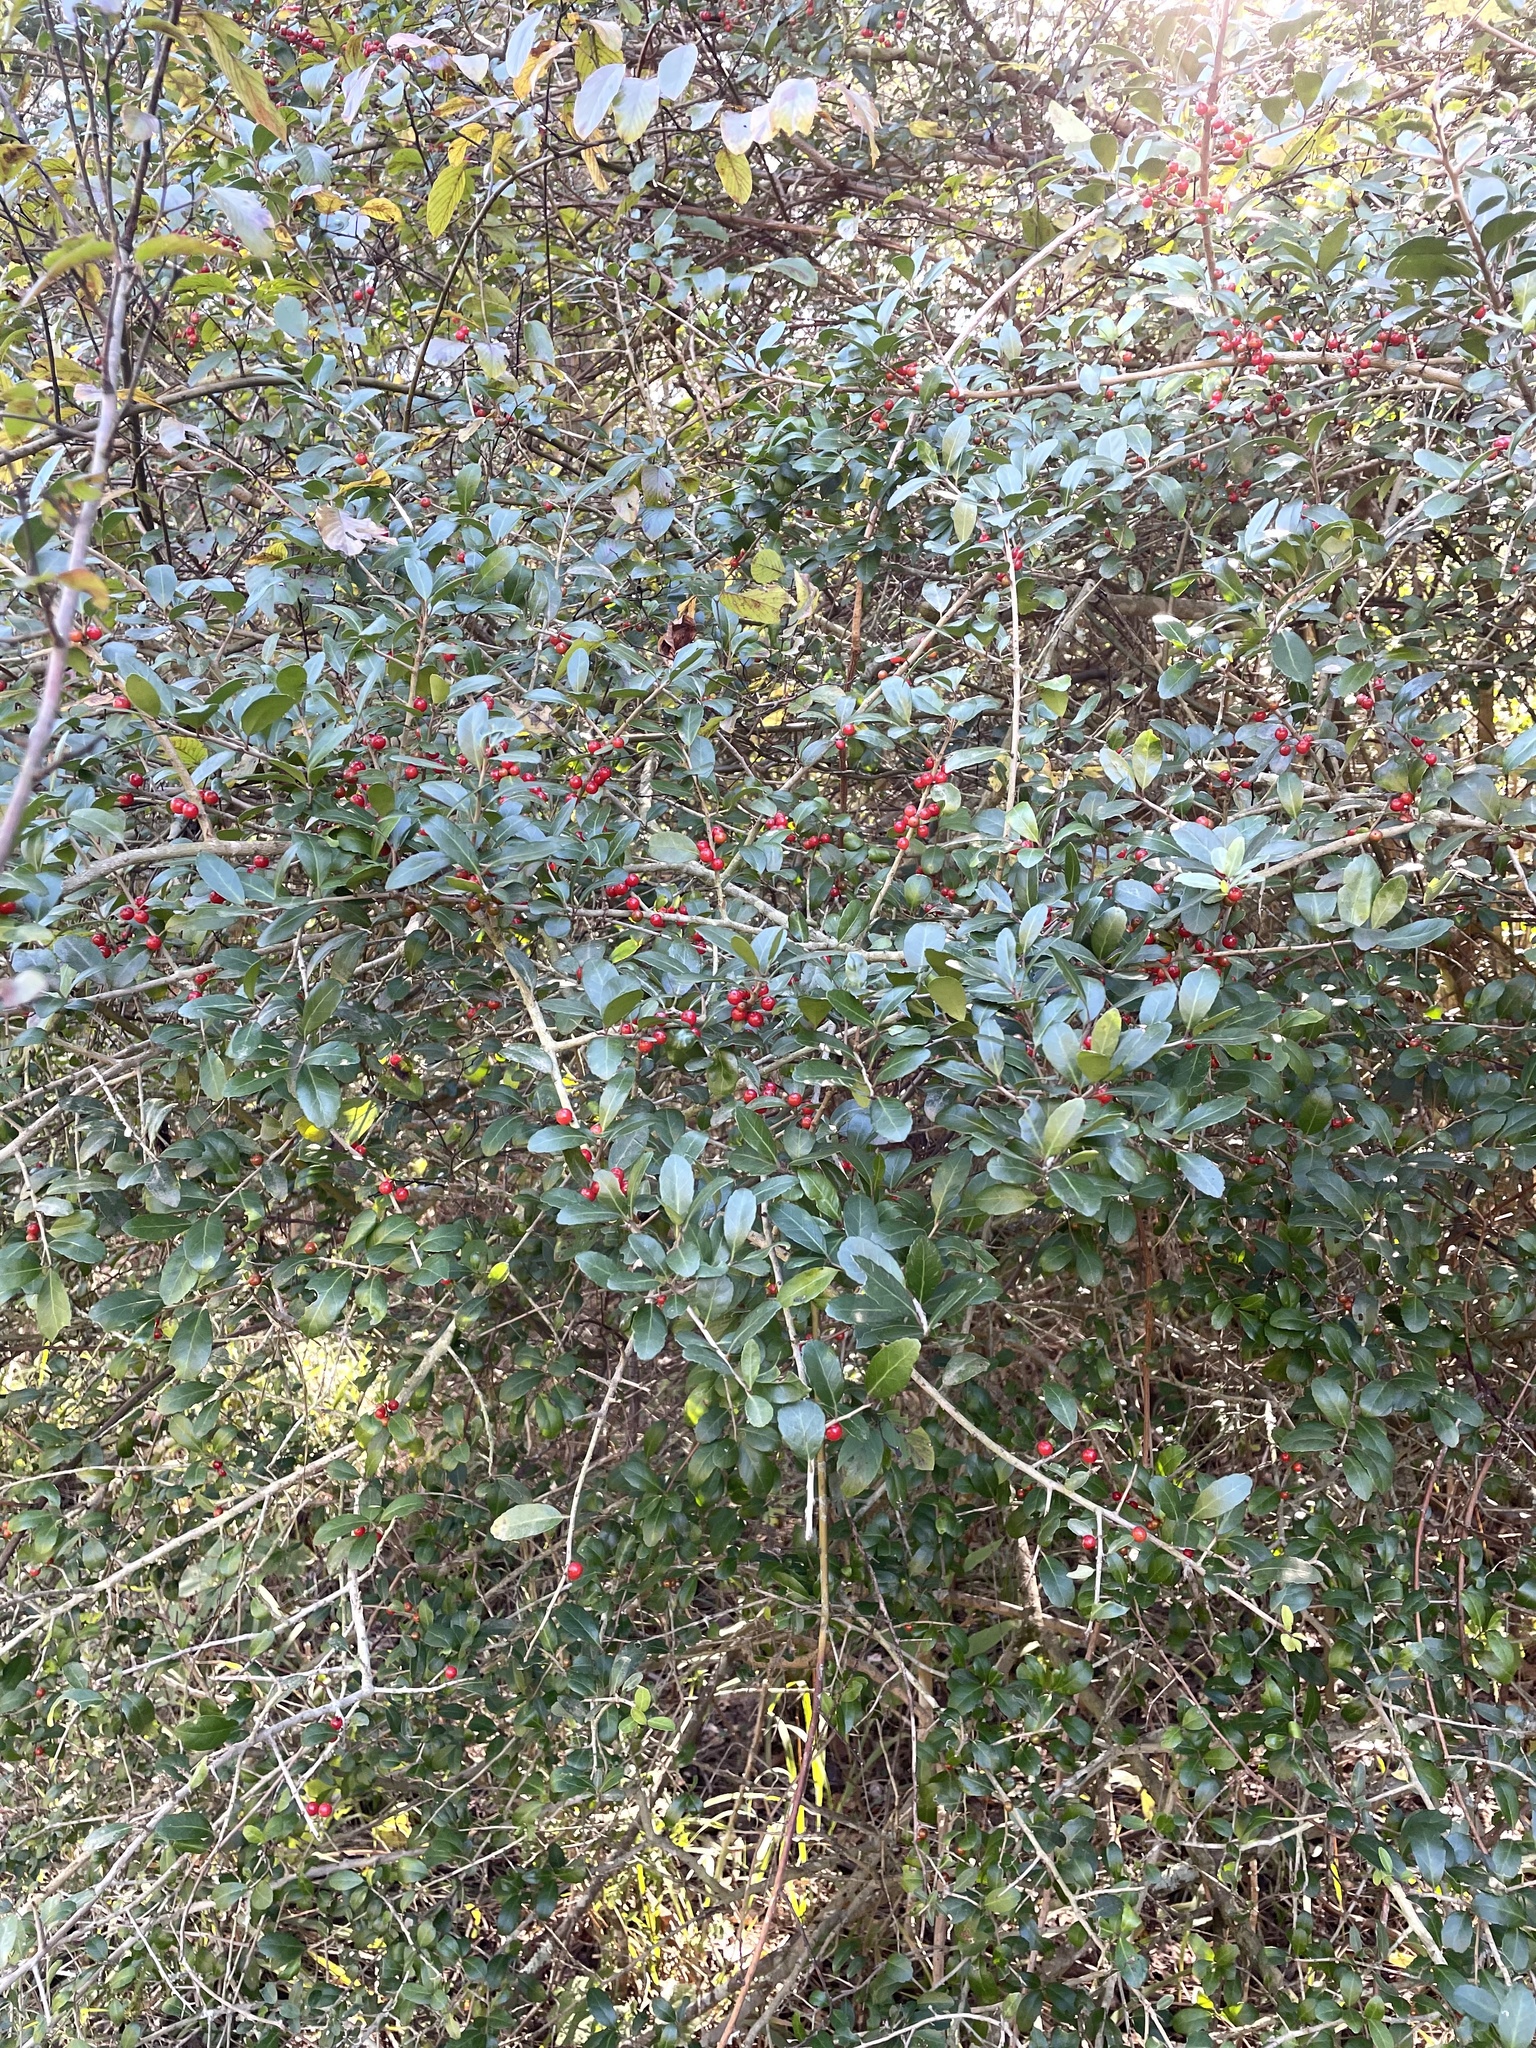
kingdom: Plantae
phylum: Tracheophyta
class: Magnoliopsida
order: Aquifoliales
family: Aquifoliaceae
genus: Ilex
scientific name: Ilex vomitoria
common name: Yaupon holly
